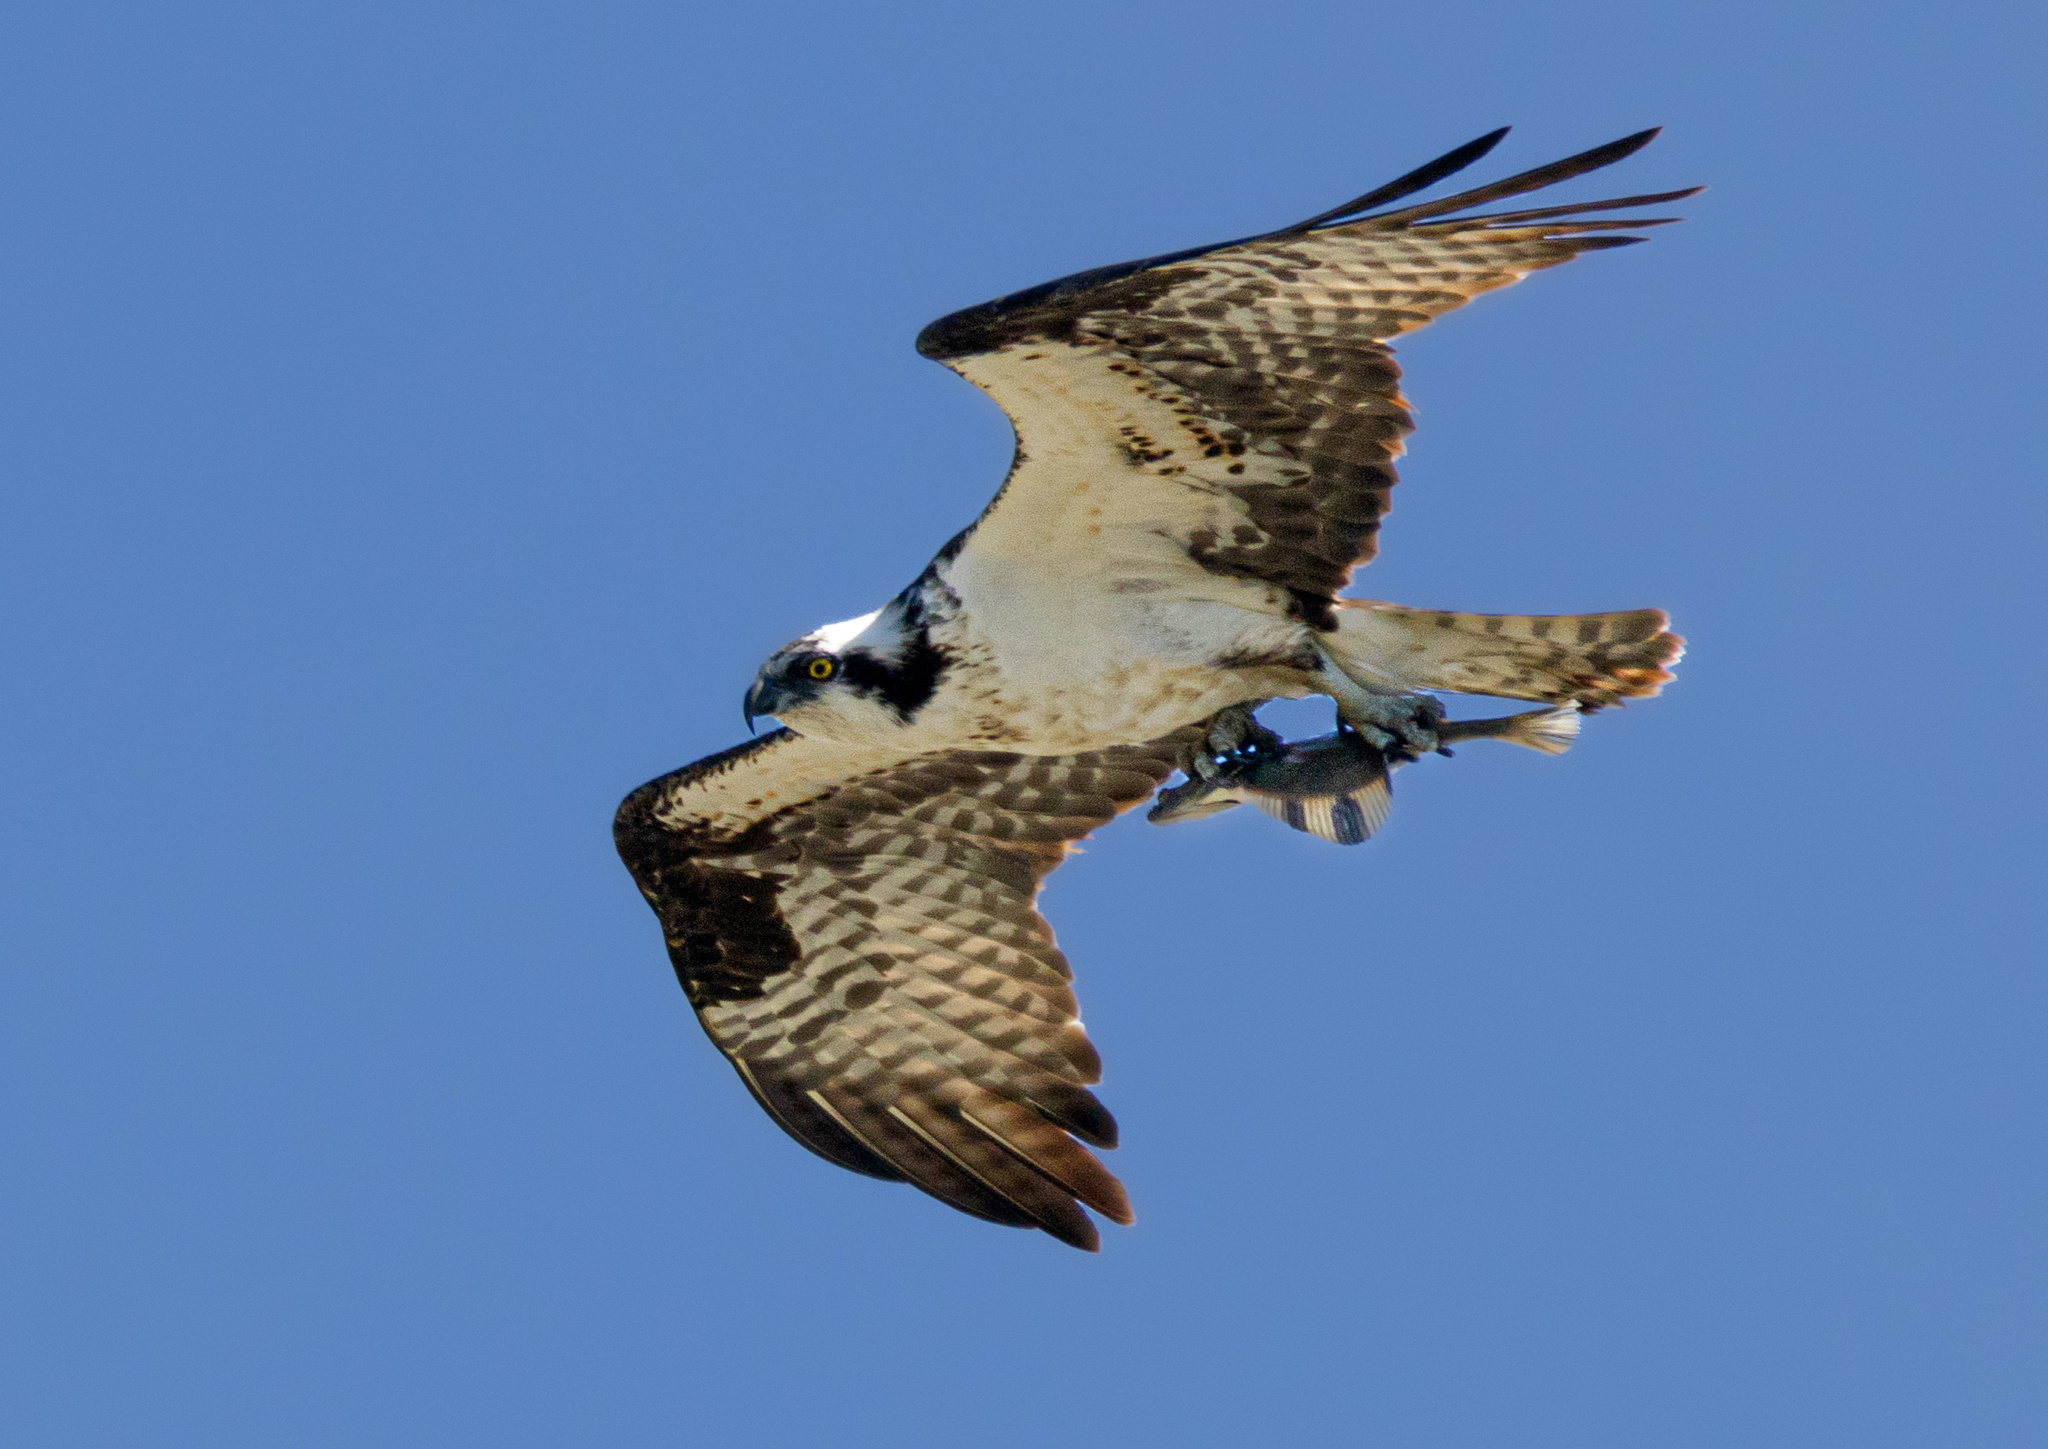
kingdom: Animalia
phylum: Chordata
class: Aves
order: Accipitriformes
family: Pandionidae
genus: Pandion
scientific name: Pandion haliaetus
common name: Osprey
